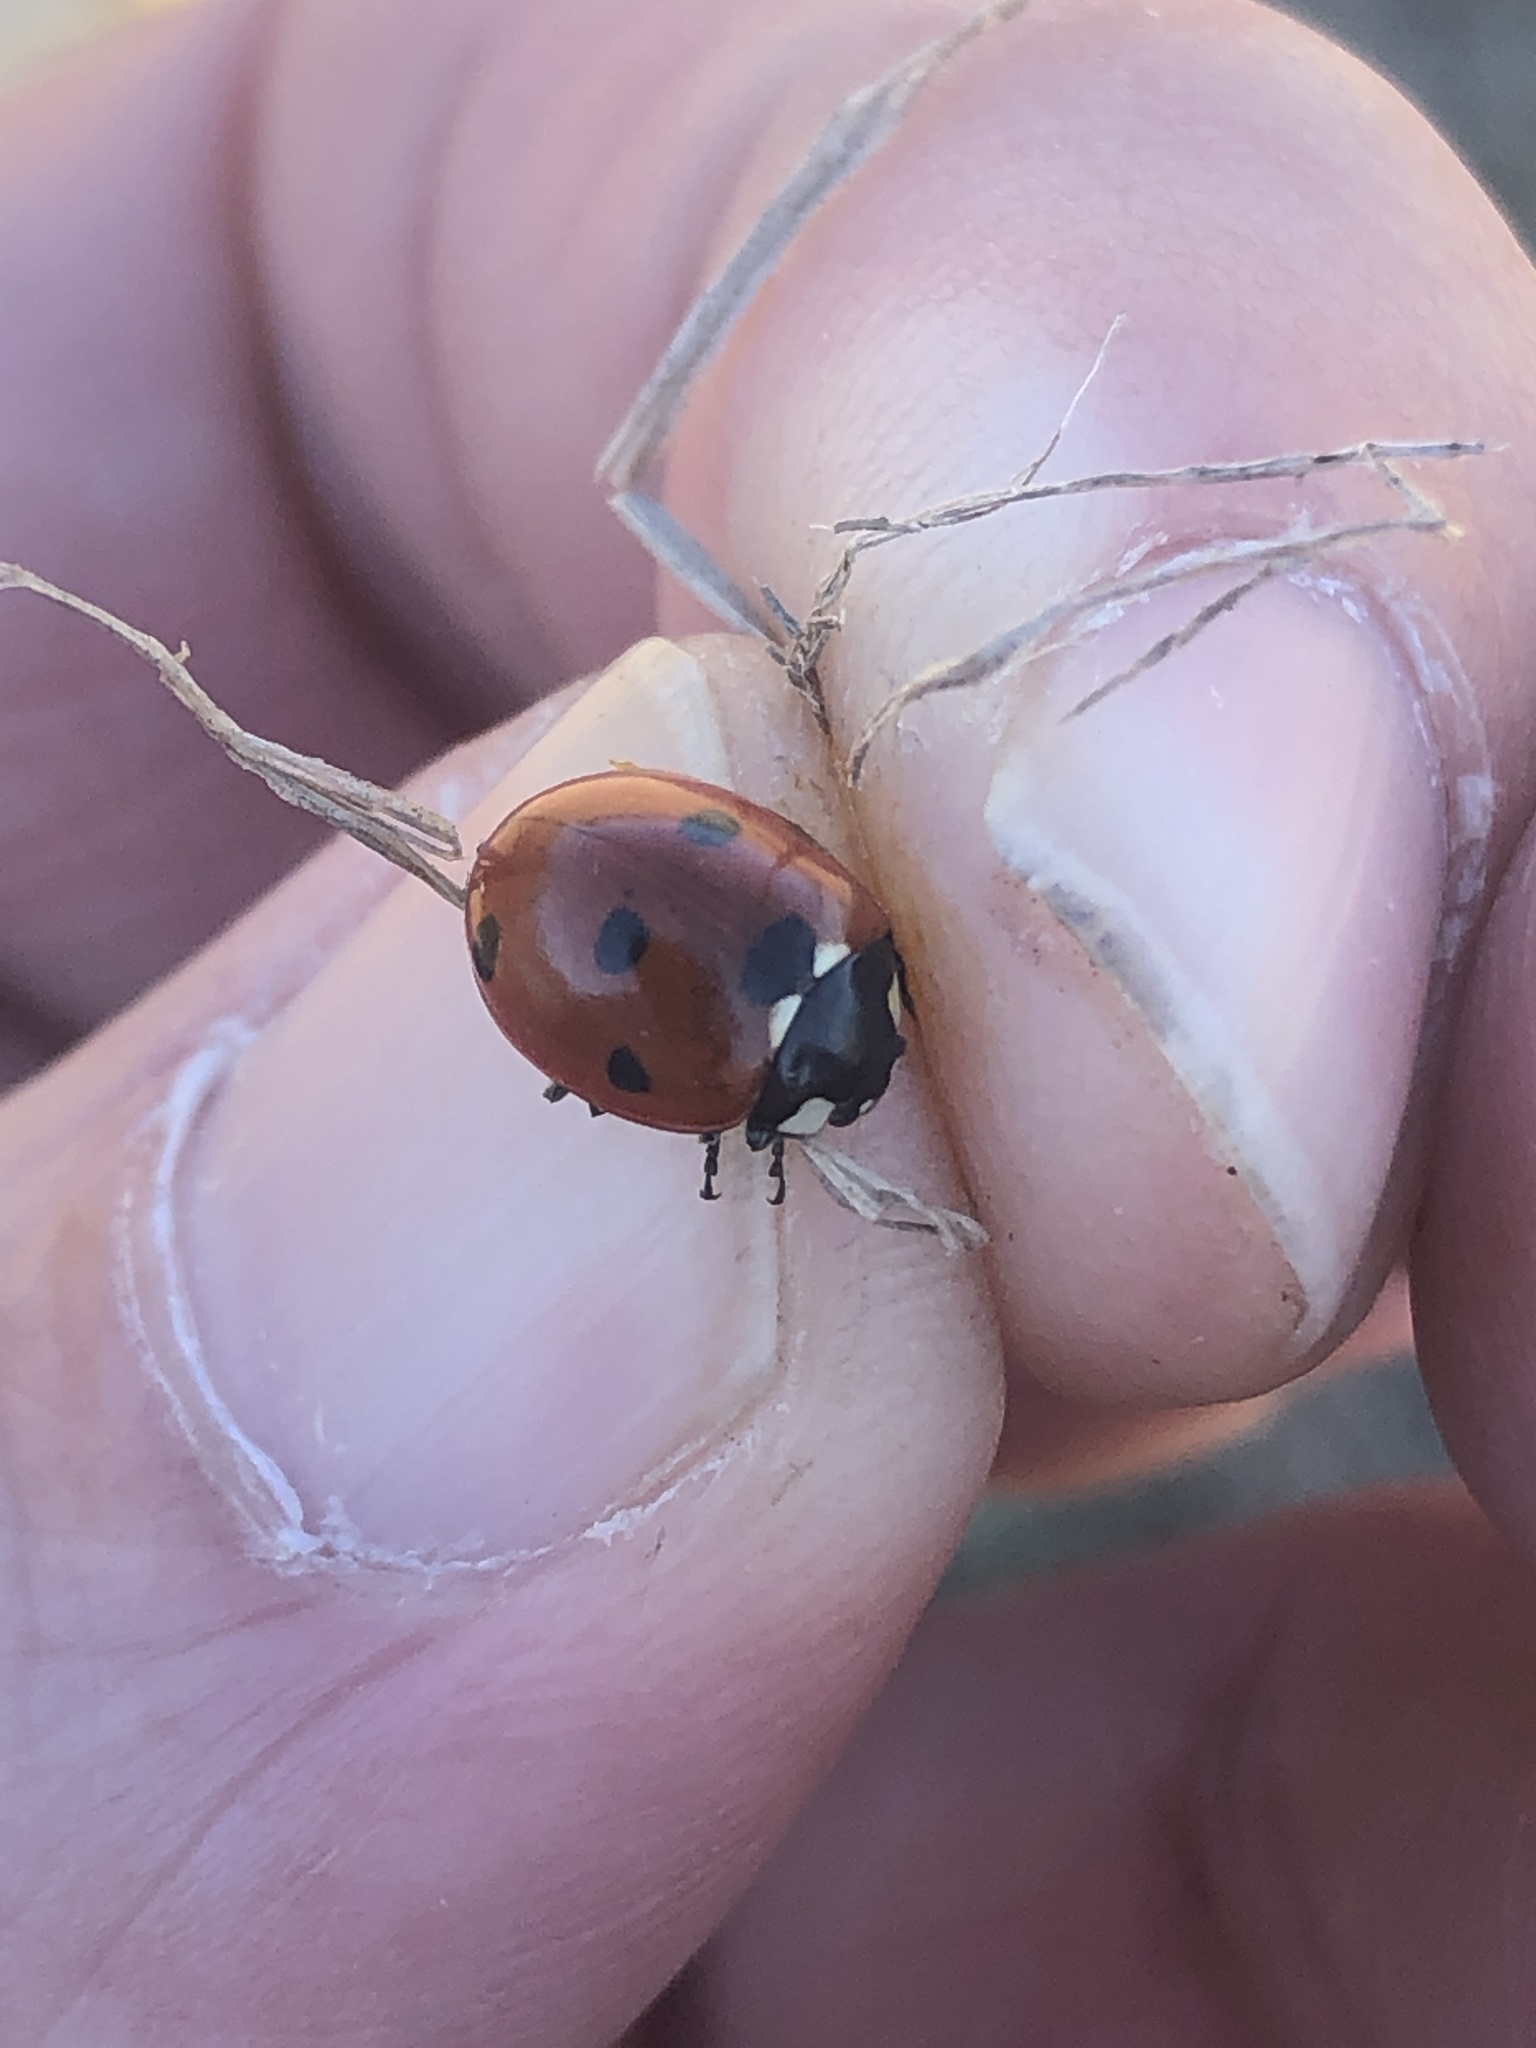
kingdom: Animalia
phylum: Arthropoda
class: Insecta
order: Coleoptera
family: Coccinellidae
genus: Coccinella
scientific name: Coccinella septempunctata
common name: Sevenspotted lady beetle
